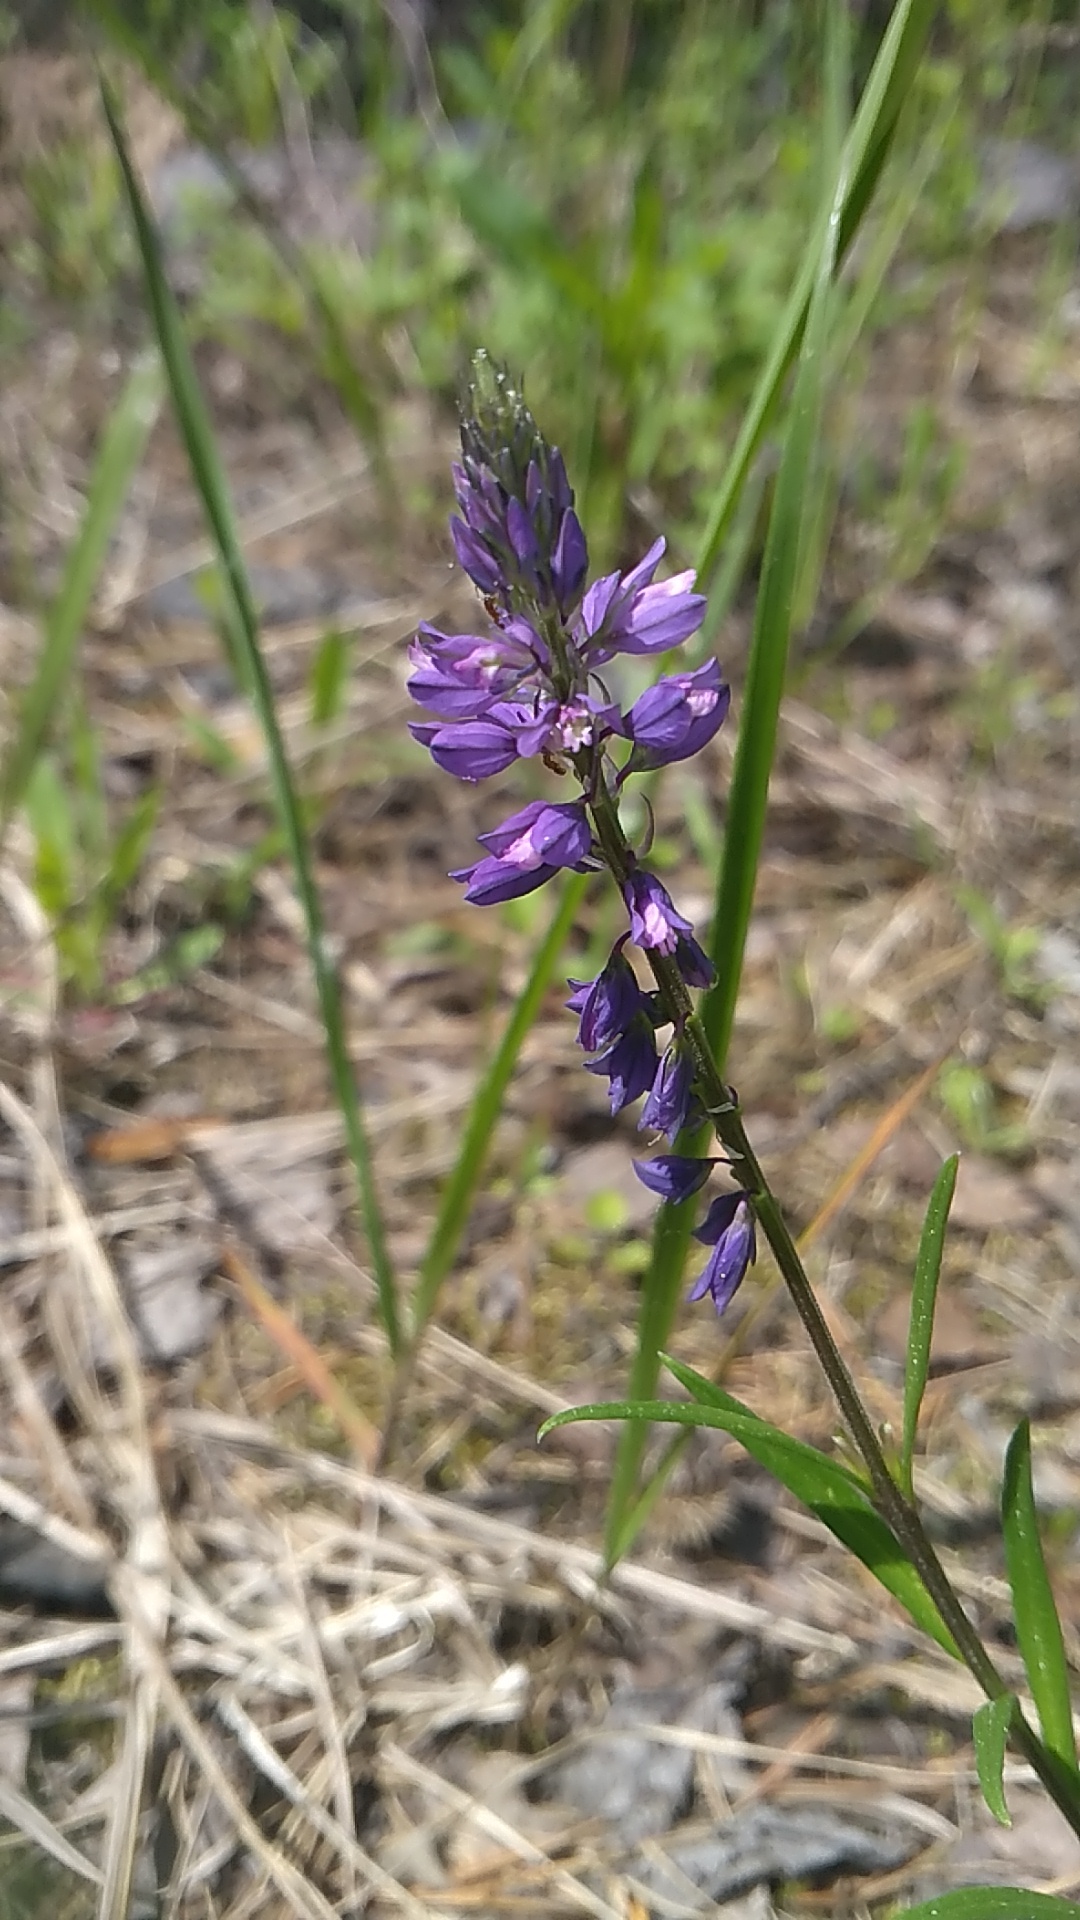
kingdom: Plantae
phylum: Tracheophyta
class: Magnoliopsida
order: Fabales
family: Polygalaceae
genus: Polygala
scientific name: Polygala comosa
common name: Tufted milkwort
